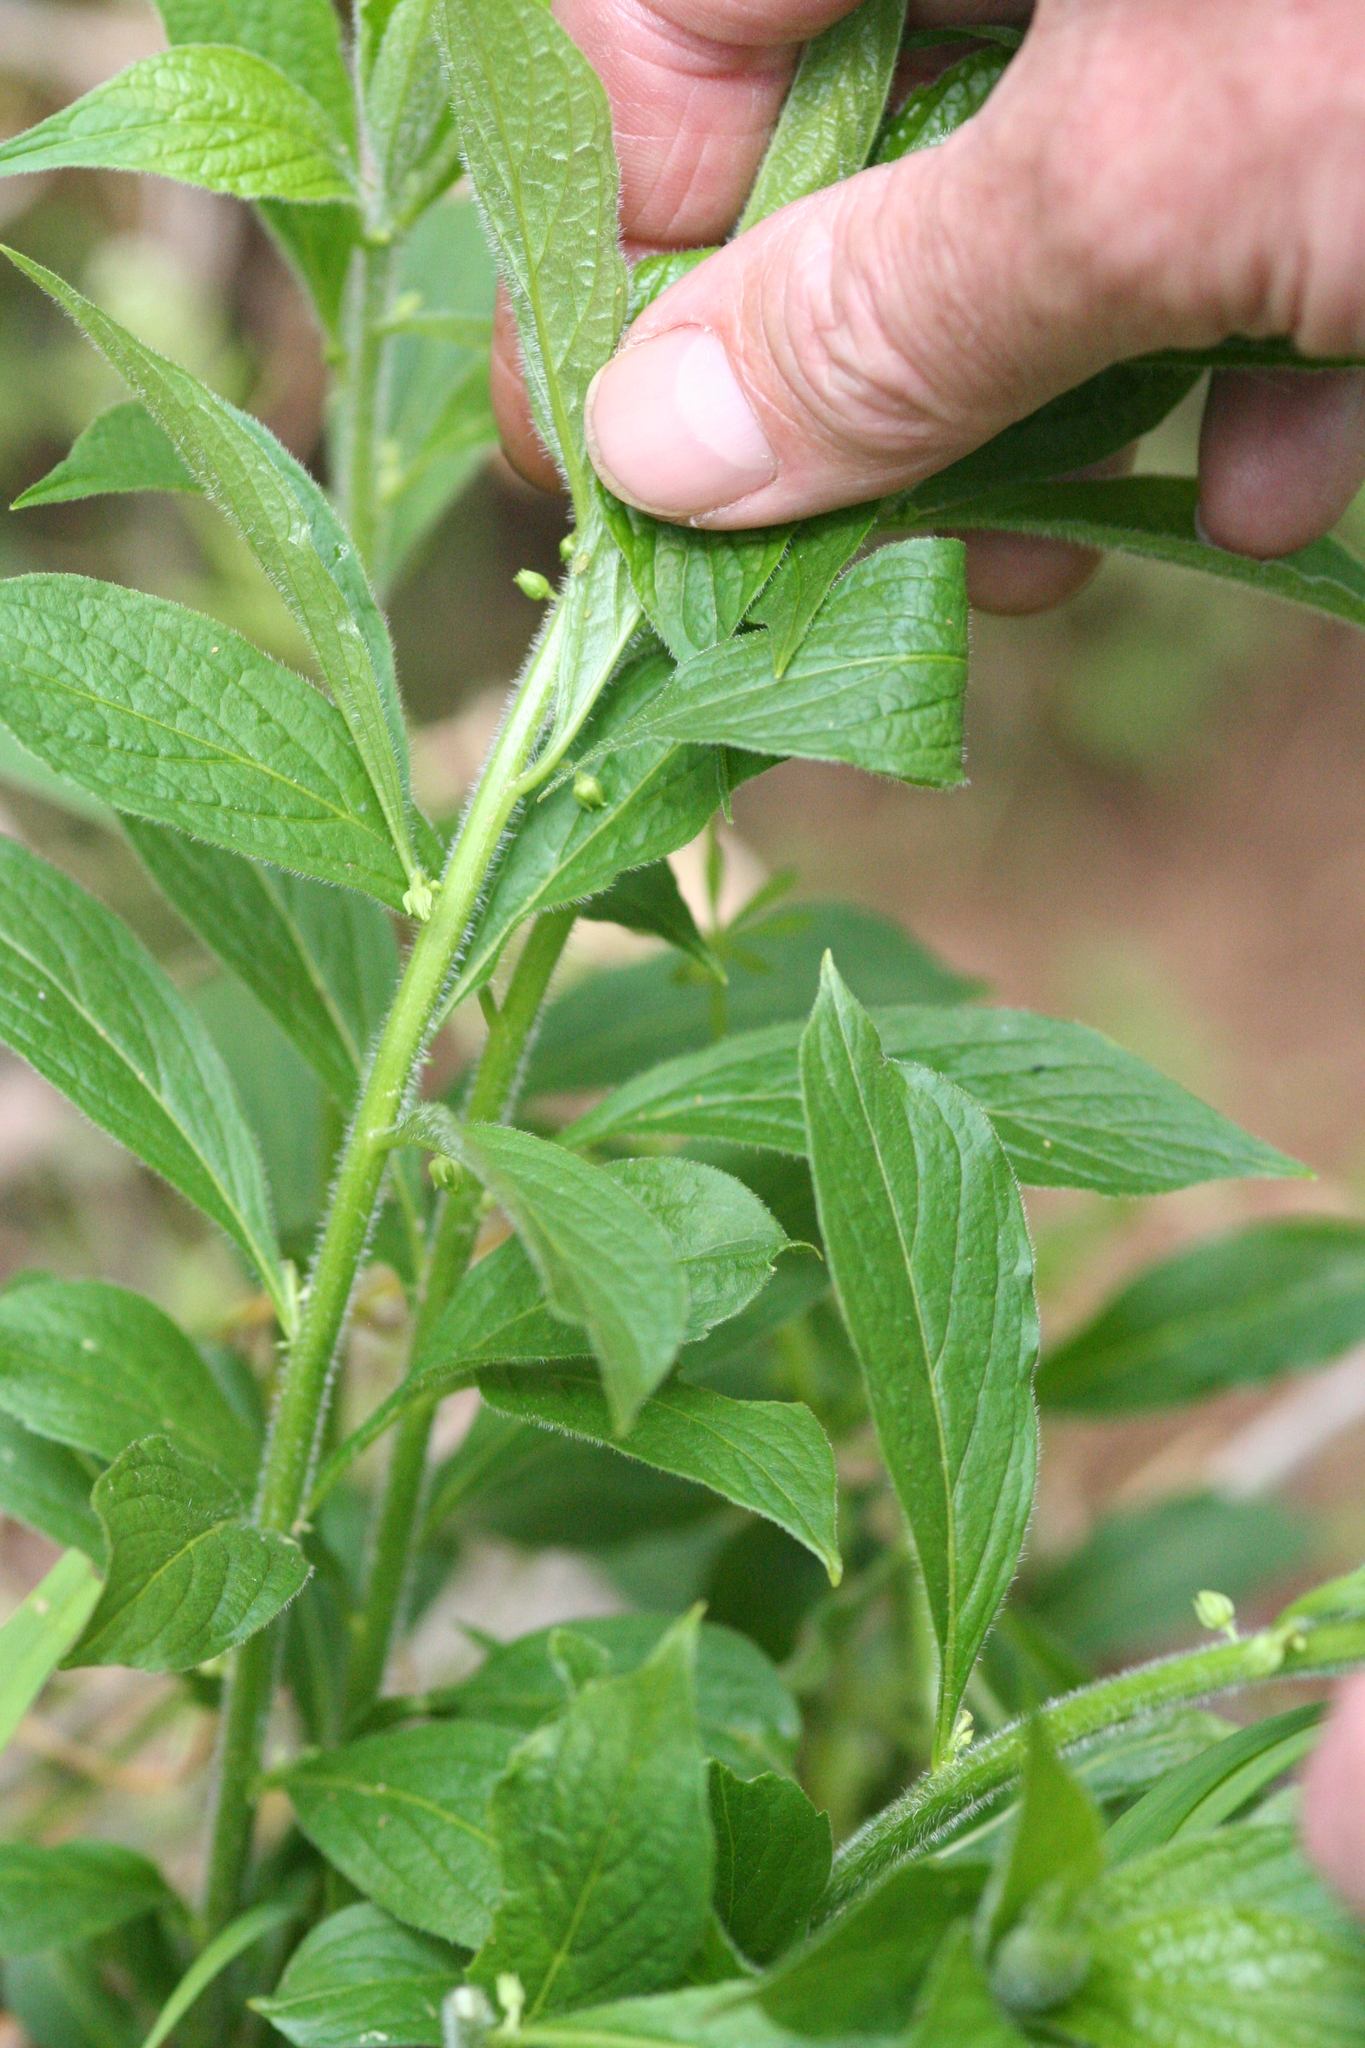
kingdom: Plantae
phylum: Tracheophyta
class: Magnoliopsida
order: Malpighiales
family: Violaceae
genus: Cubelium
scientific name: Cubelium concolor
